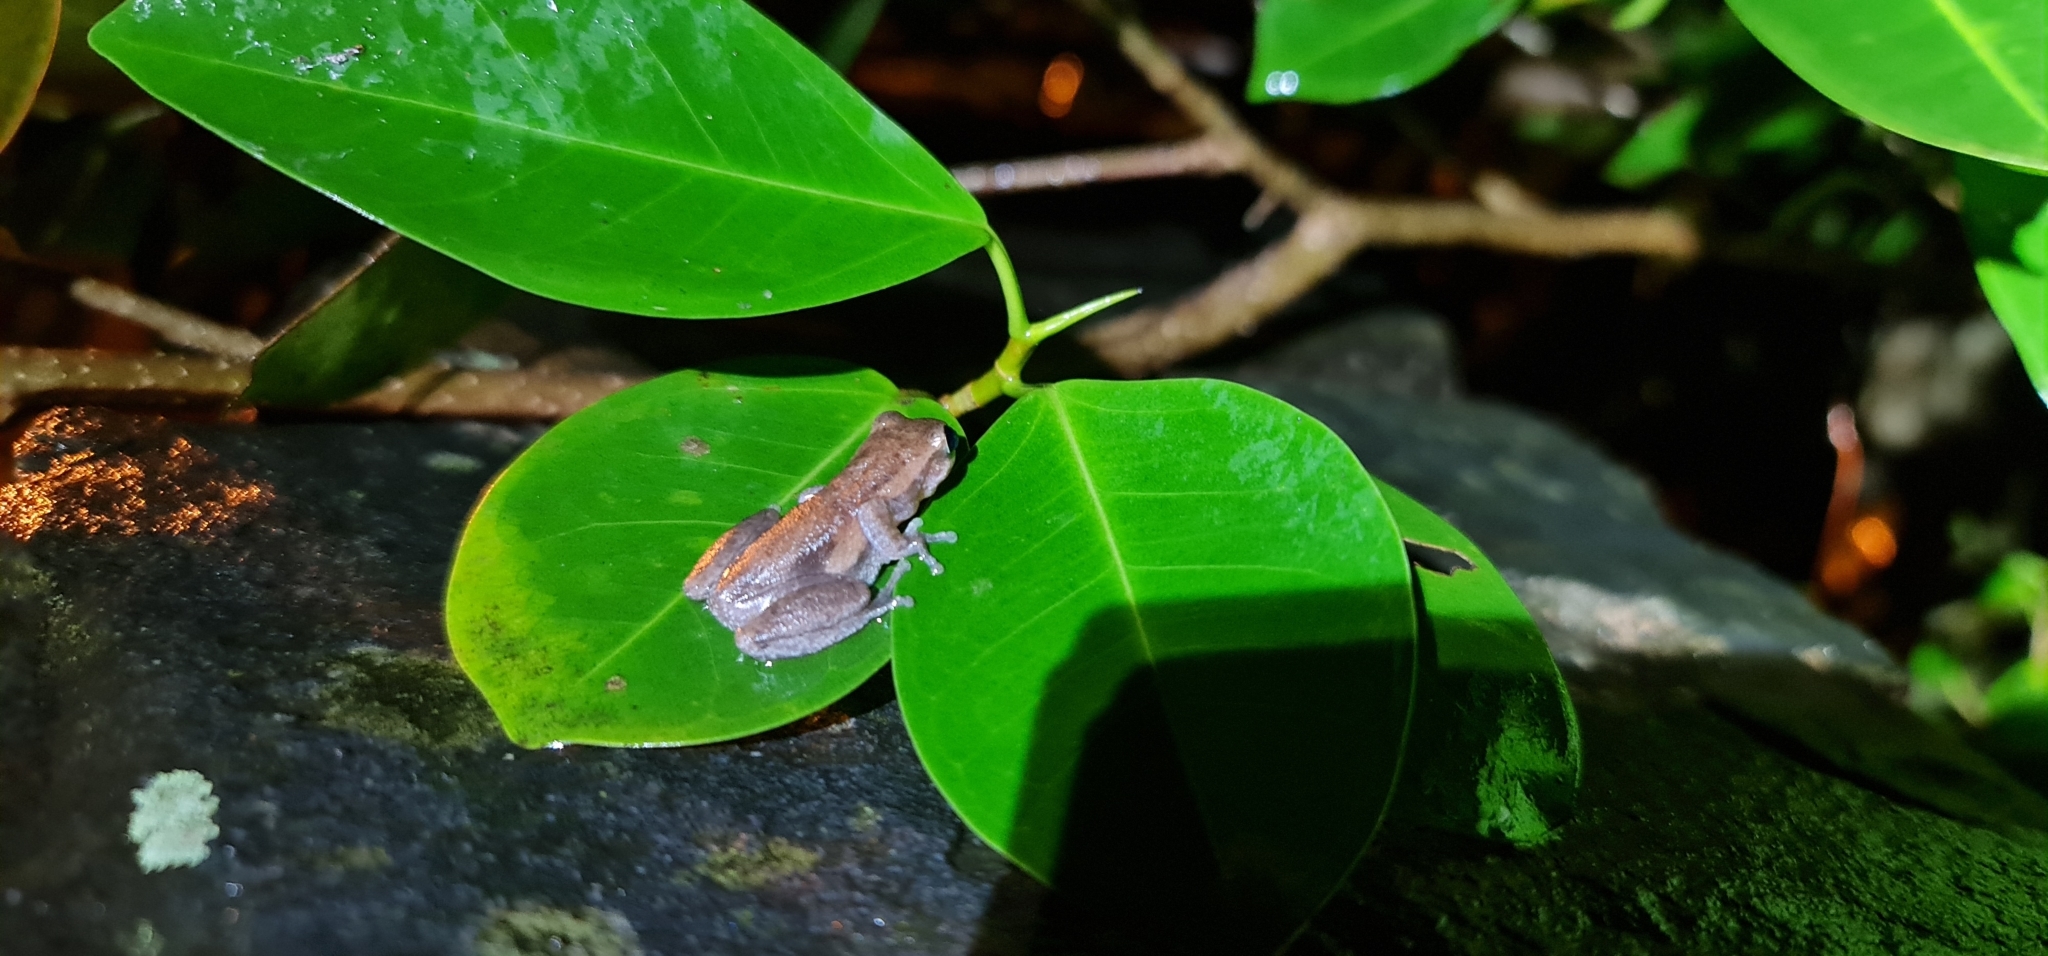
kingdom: Animalia
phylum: Chordata
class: Amphibia
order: Anura
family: Pelodryadidae
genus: Litoria
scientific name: Litoria rubella
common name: Desert tree frog
